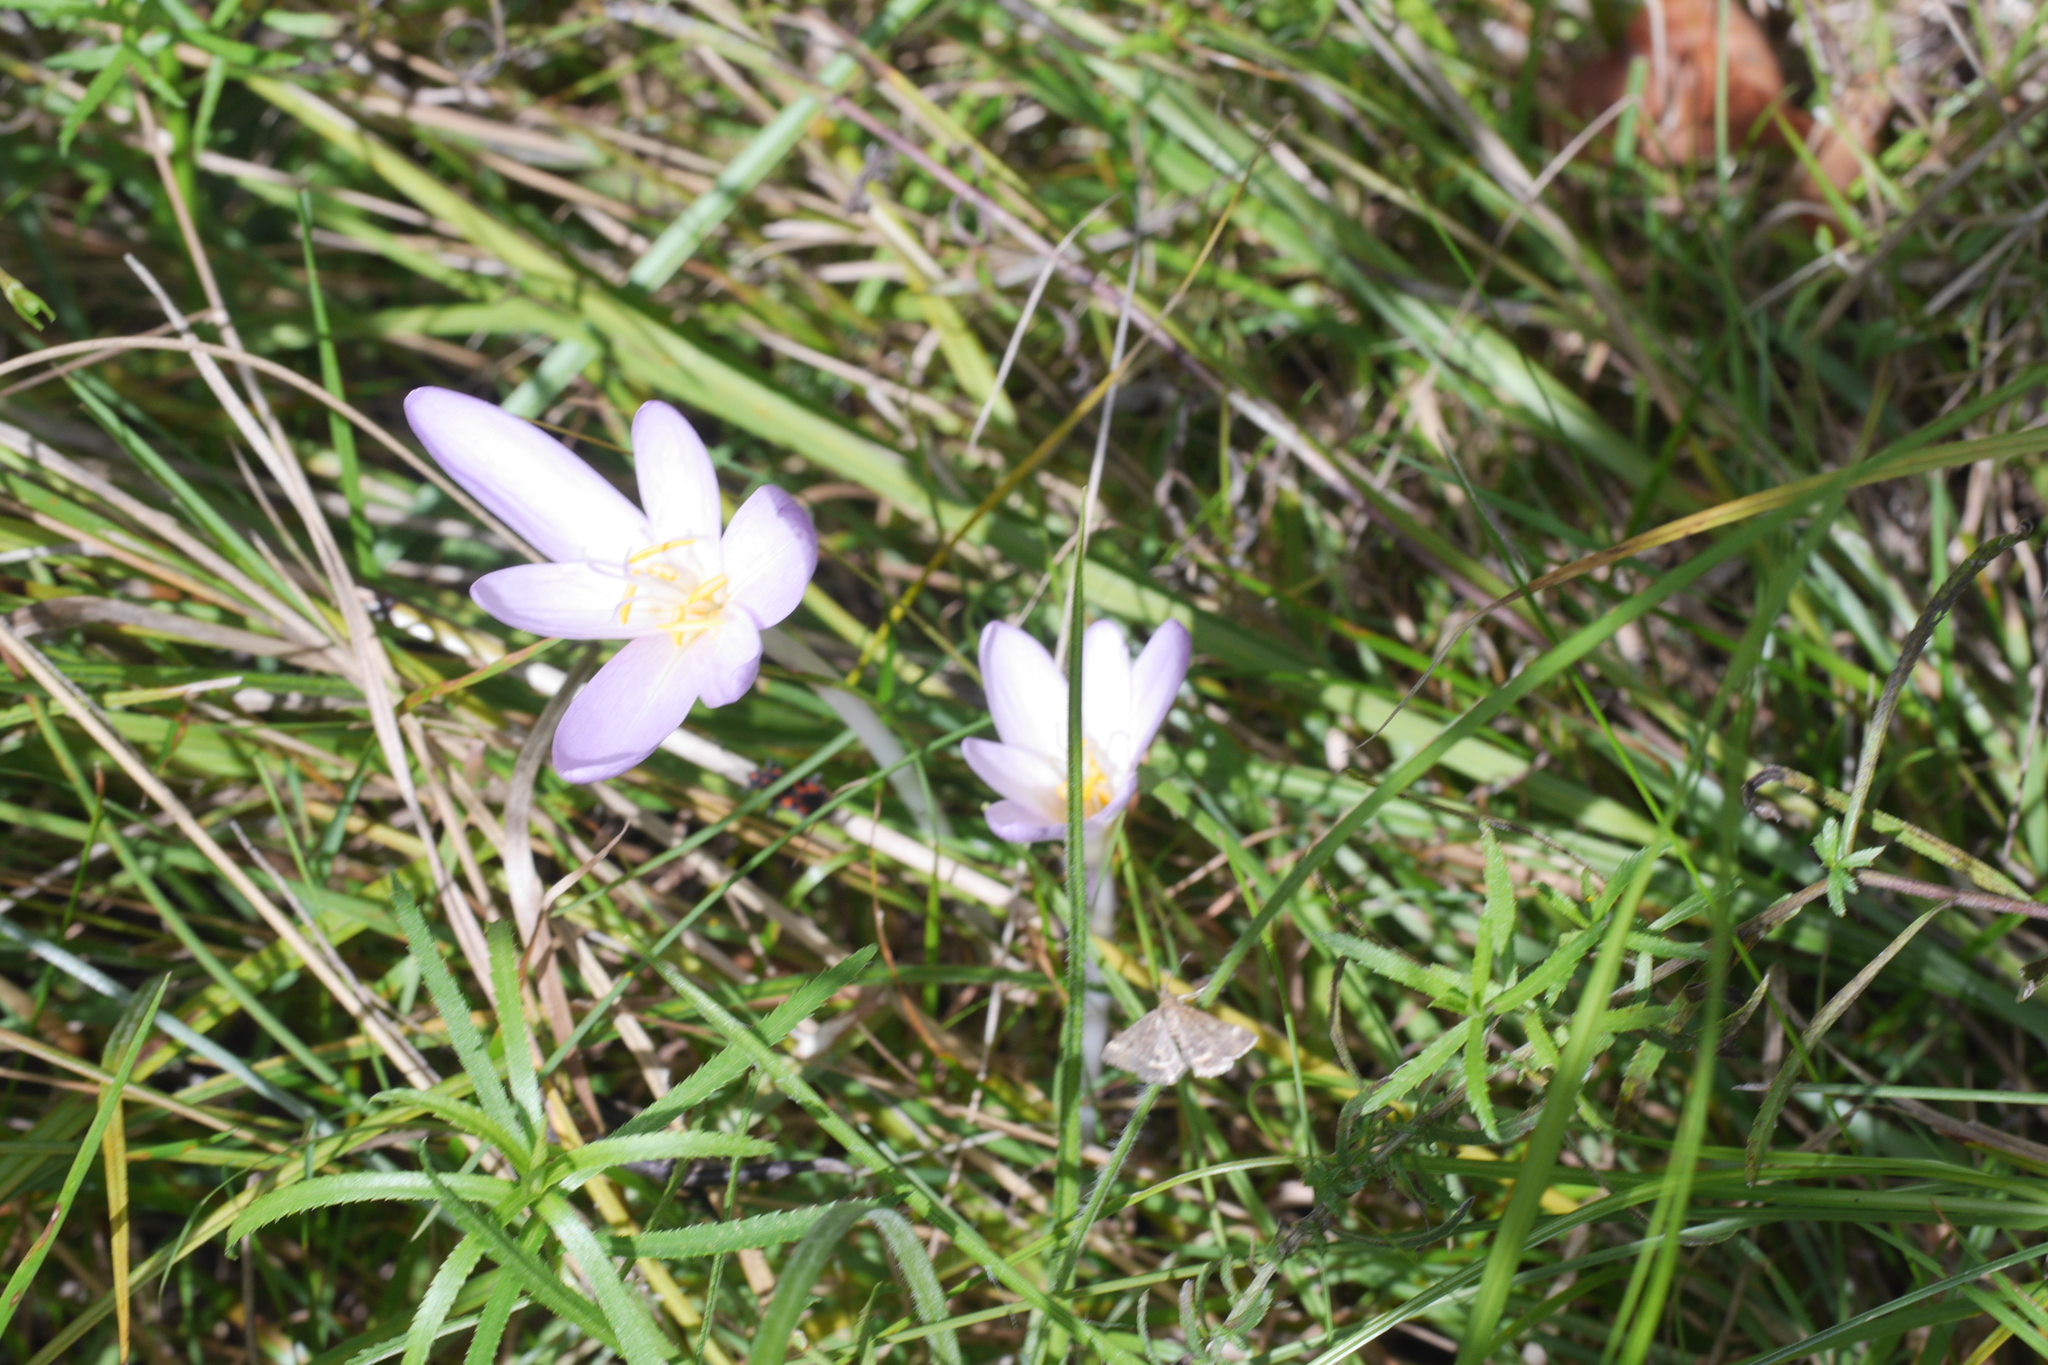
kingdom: Plantae
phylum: Tracheophyta
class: Liliopsida
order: Liliales
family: Colchicaceae
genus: Colchicum
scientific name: Colchicum autumnale
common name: Autumn crocus
